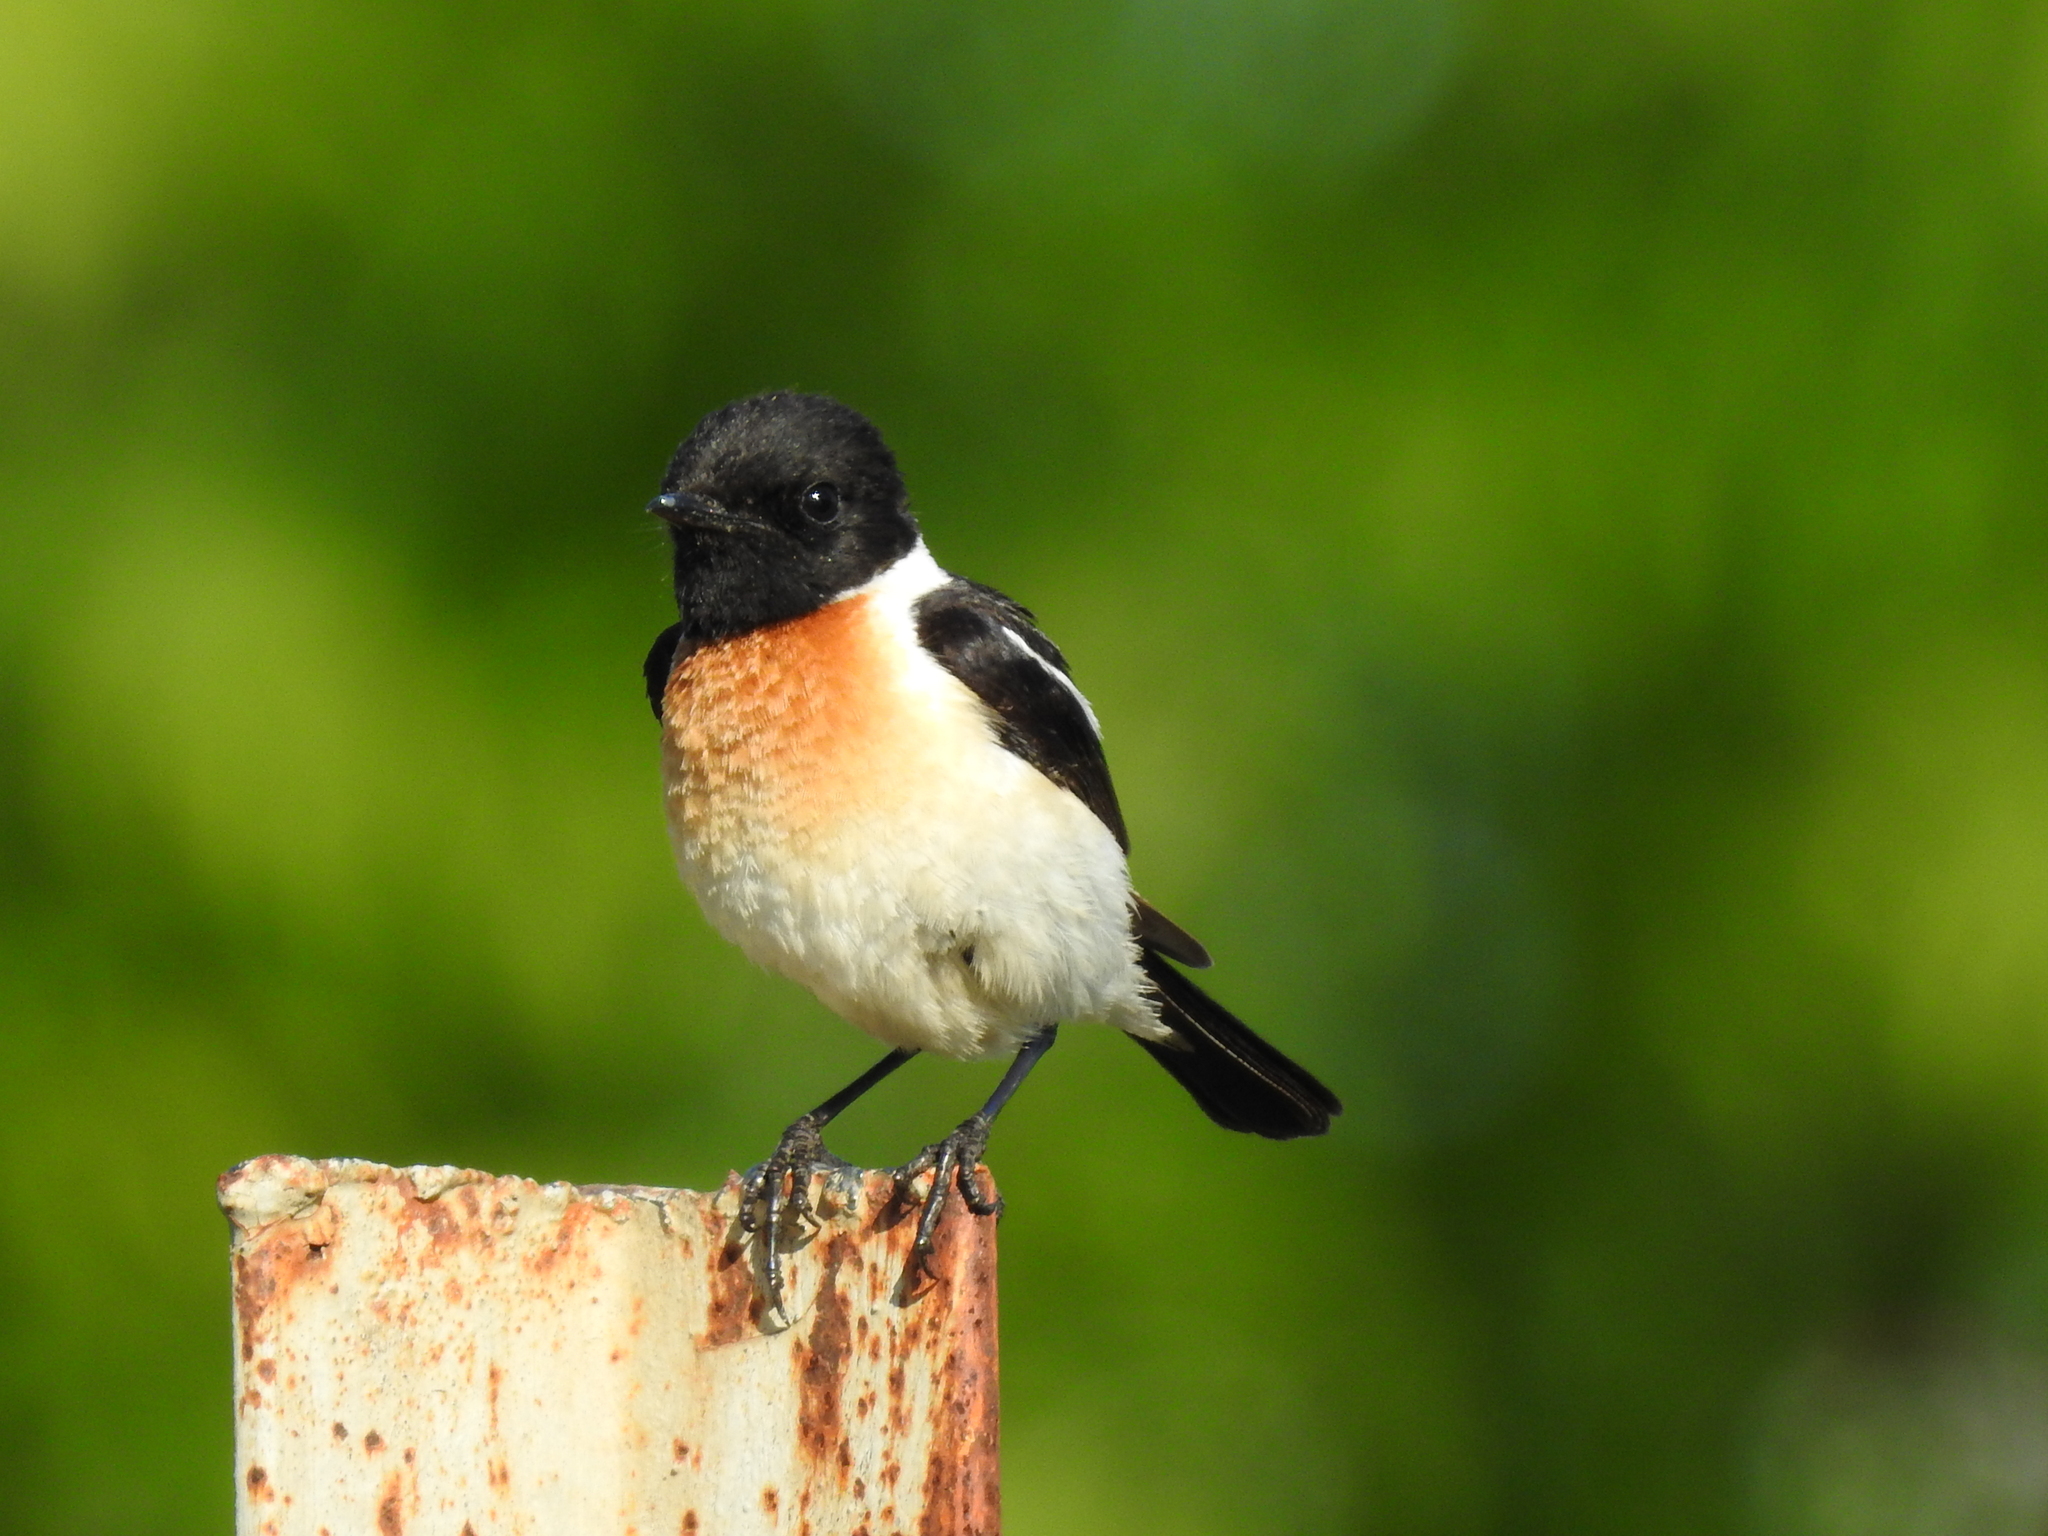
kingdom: Animalia
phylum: Chordata
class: Aves
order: Passeriformes
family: Muscicapidae
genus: Saxicola
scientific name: Saxicola maurus
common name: Siberian stonechat
